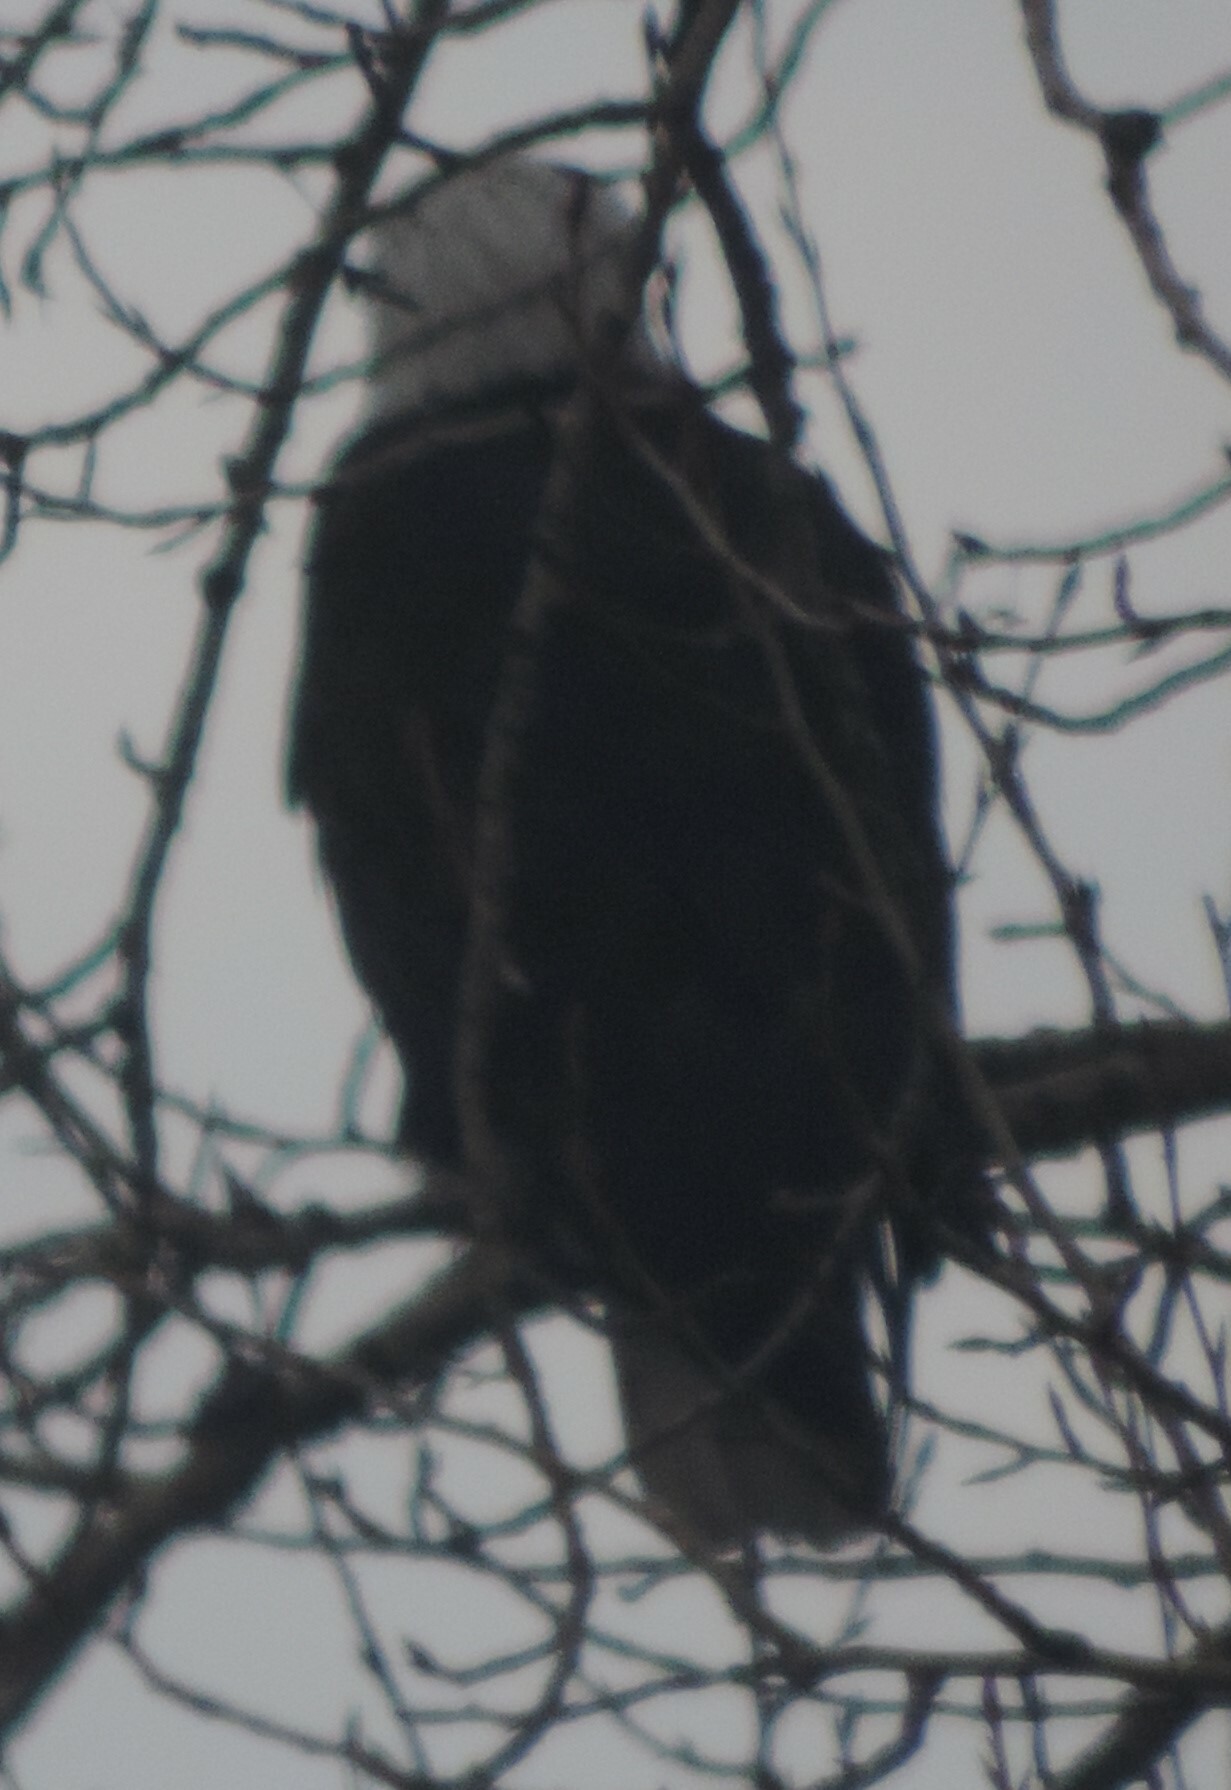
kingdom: Animalia
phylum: Chordata
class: Aves
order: Accipitriformes
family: Accipitridae
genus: Haliaeetus
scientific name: Haliaeetus leucocephalus
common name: Bald eagle
